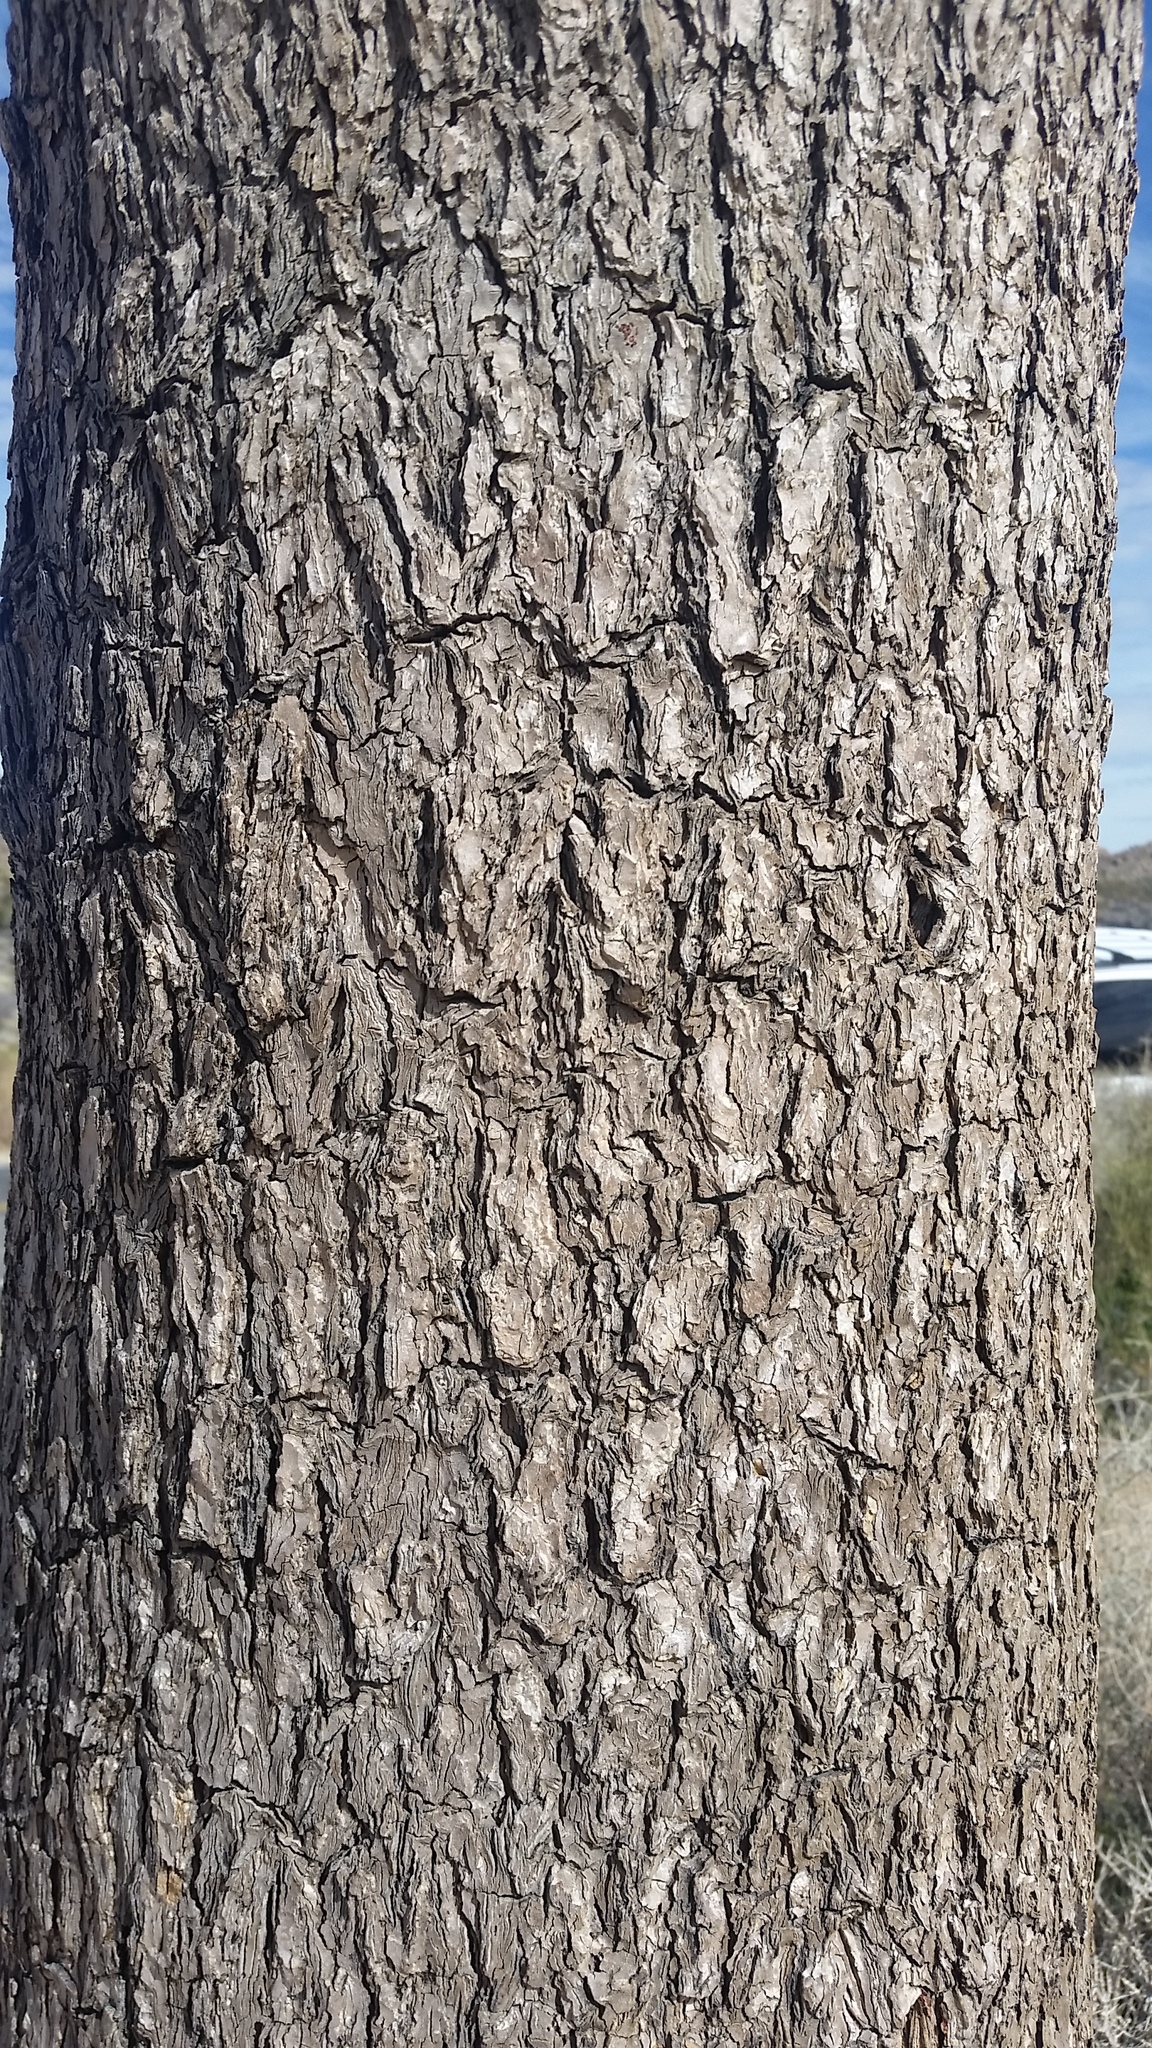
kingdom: Plantae
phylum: Tracheophyta
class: Liliopsida
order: Asparagales
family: Asparagaceae
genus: Yucca
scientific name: Yucca brevifolia
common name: Joshua tree
